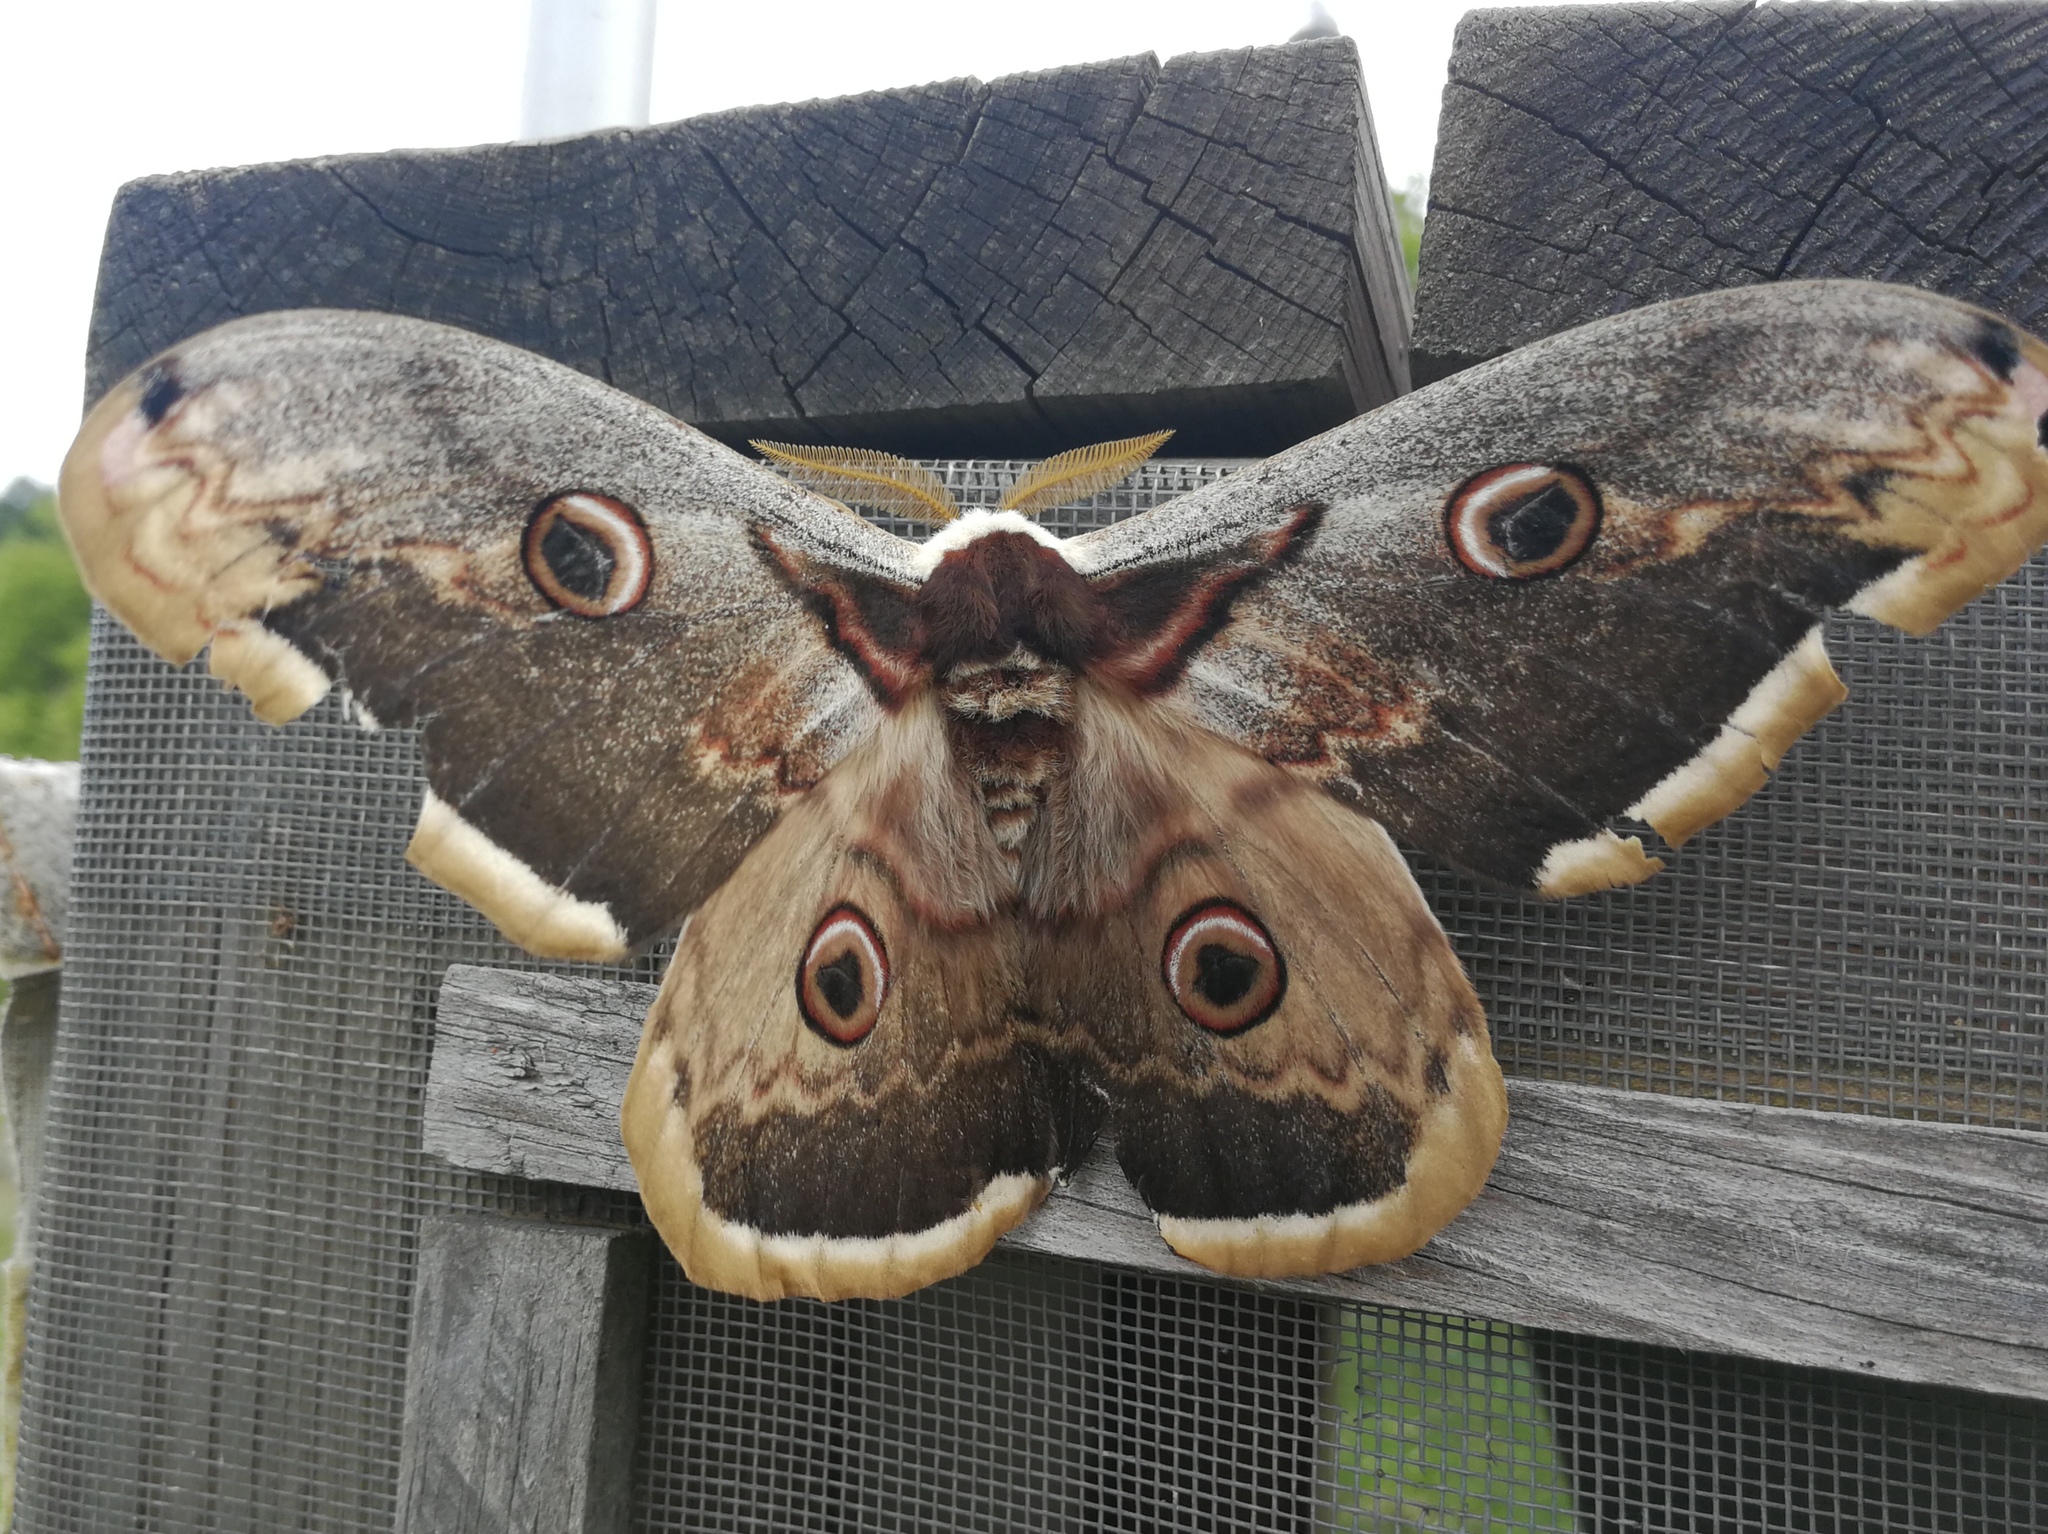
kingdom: Animalia
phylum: Arthropoda
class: Insecta
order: Lepidoptera
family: Saturniidae
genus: Saturnia
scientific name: Saturnia pyri
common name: Great peacock moth
